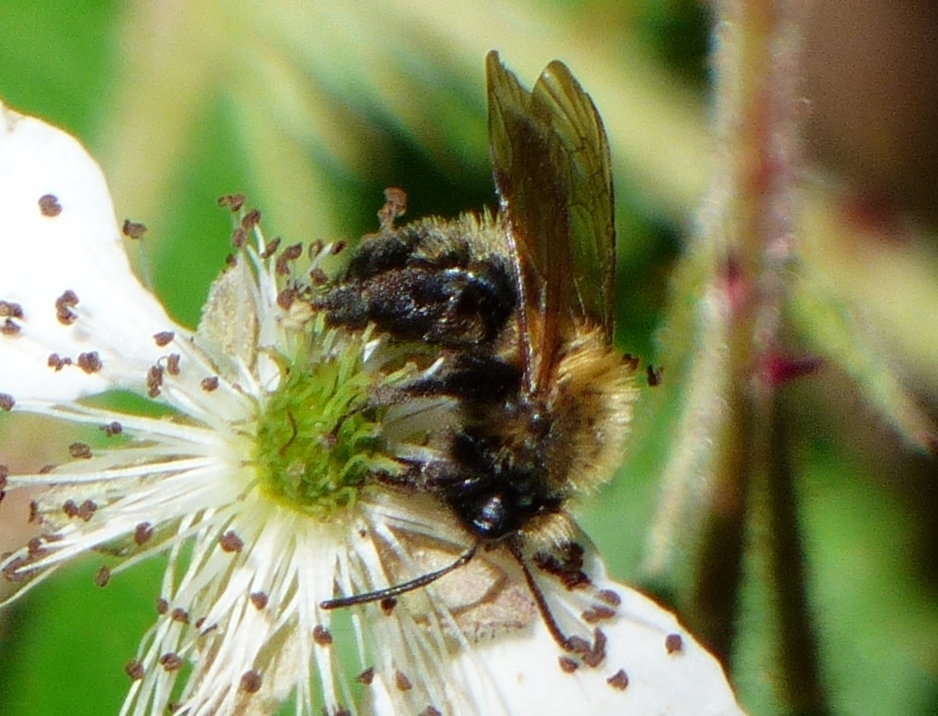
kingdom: Animalia
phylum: Arthropoda
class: Insecta
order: Hymenoptera
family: Andrenidae
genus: Andrena
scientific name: Andrena milwaukeensis
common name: Milwaukee mining bee
